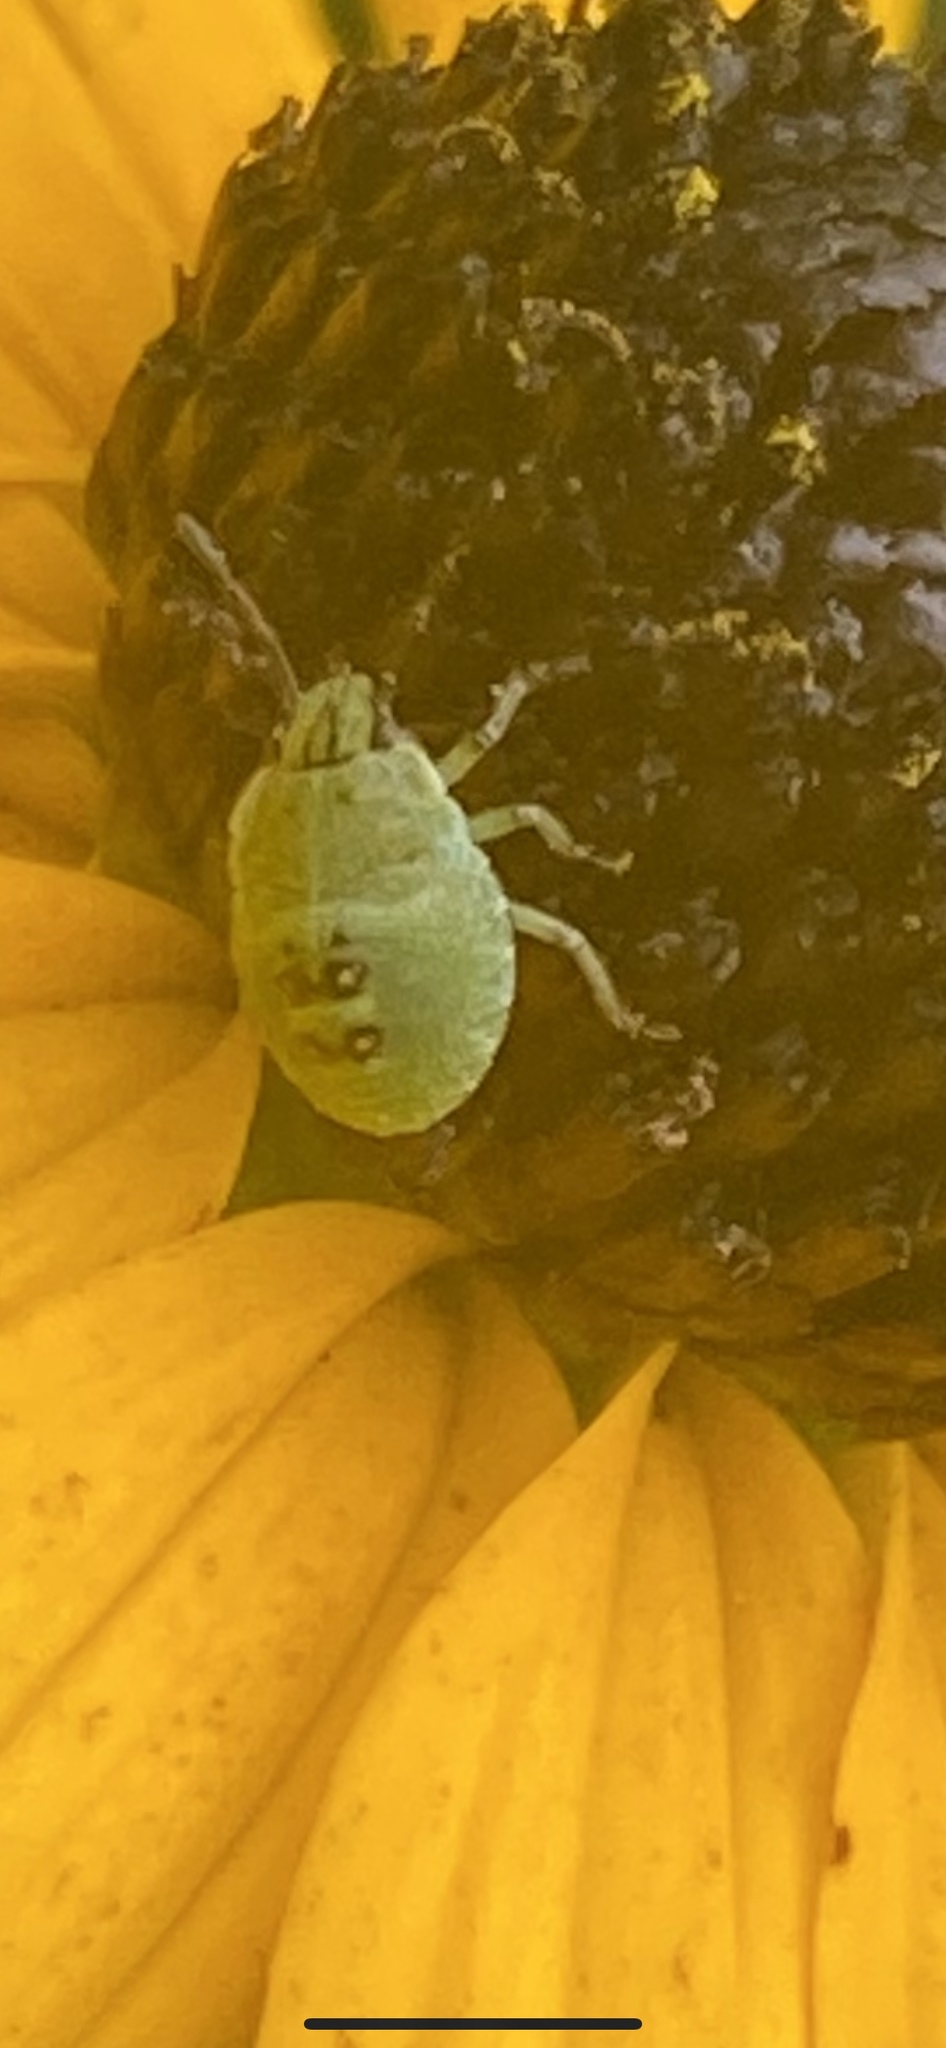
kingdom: Animalia
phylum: Arthropoda
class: Insecta
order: Hemiptera
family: Pentatomidae
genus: Palomena
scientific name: Palomena prasina
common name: Green shieldbug
